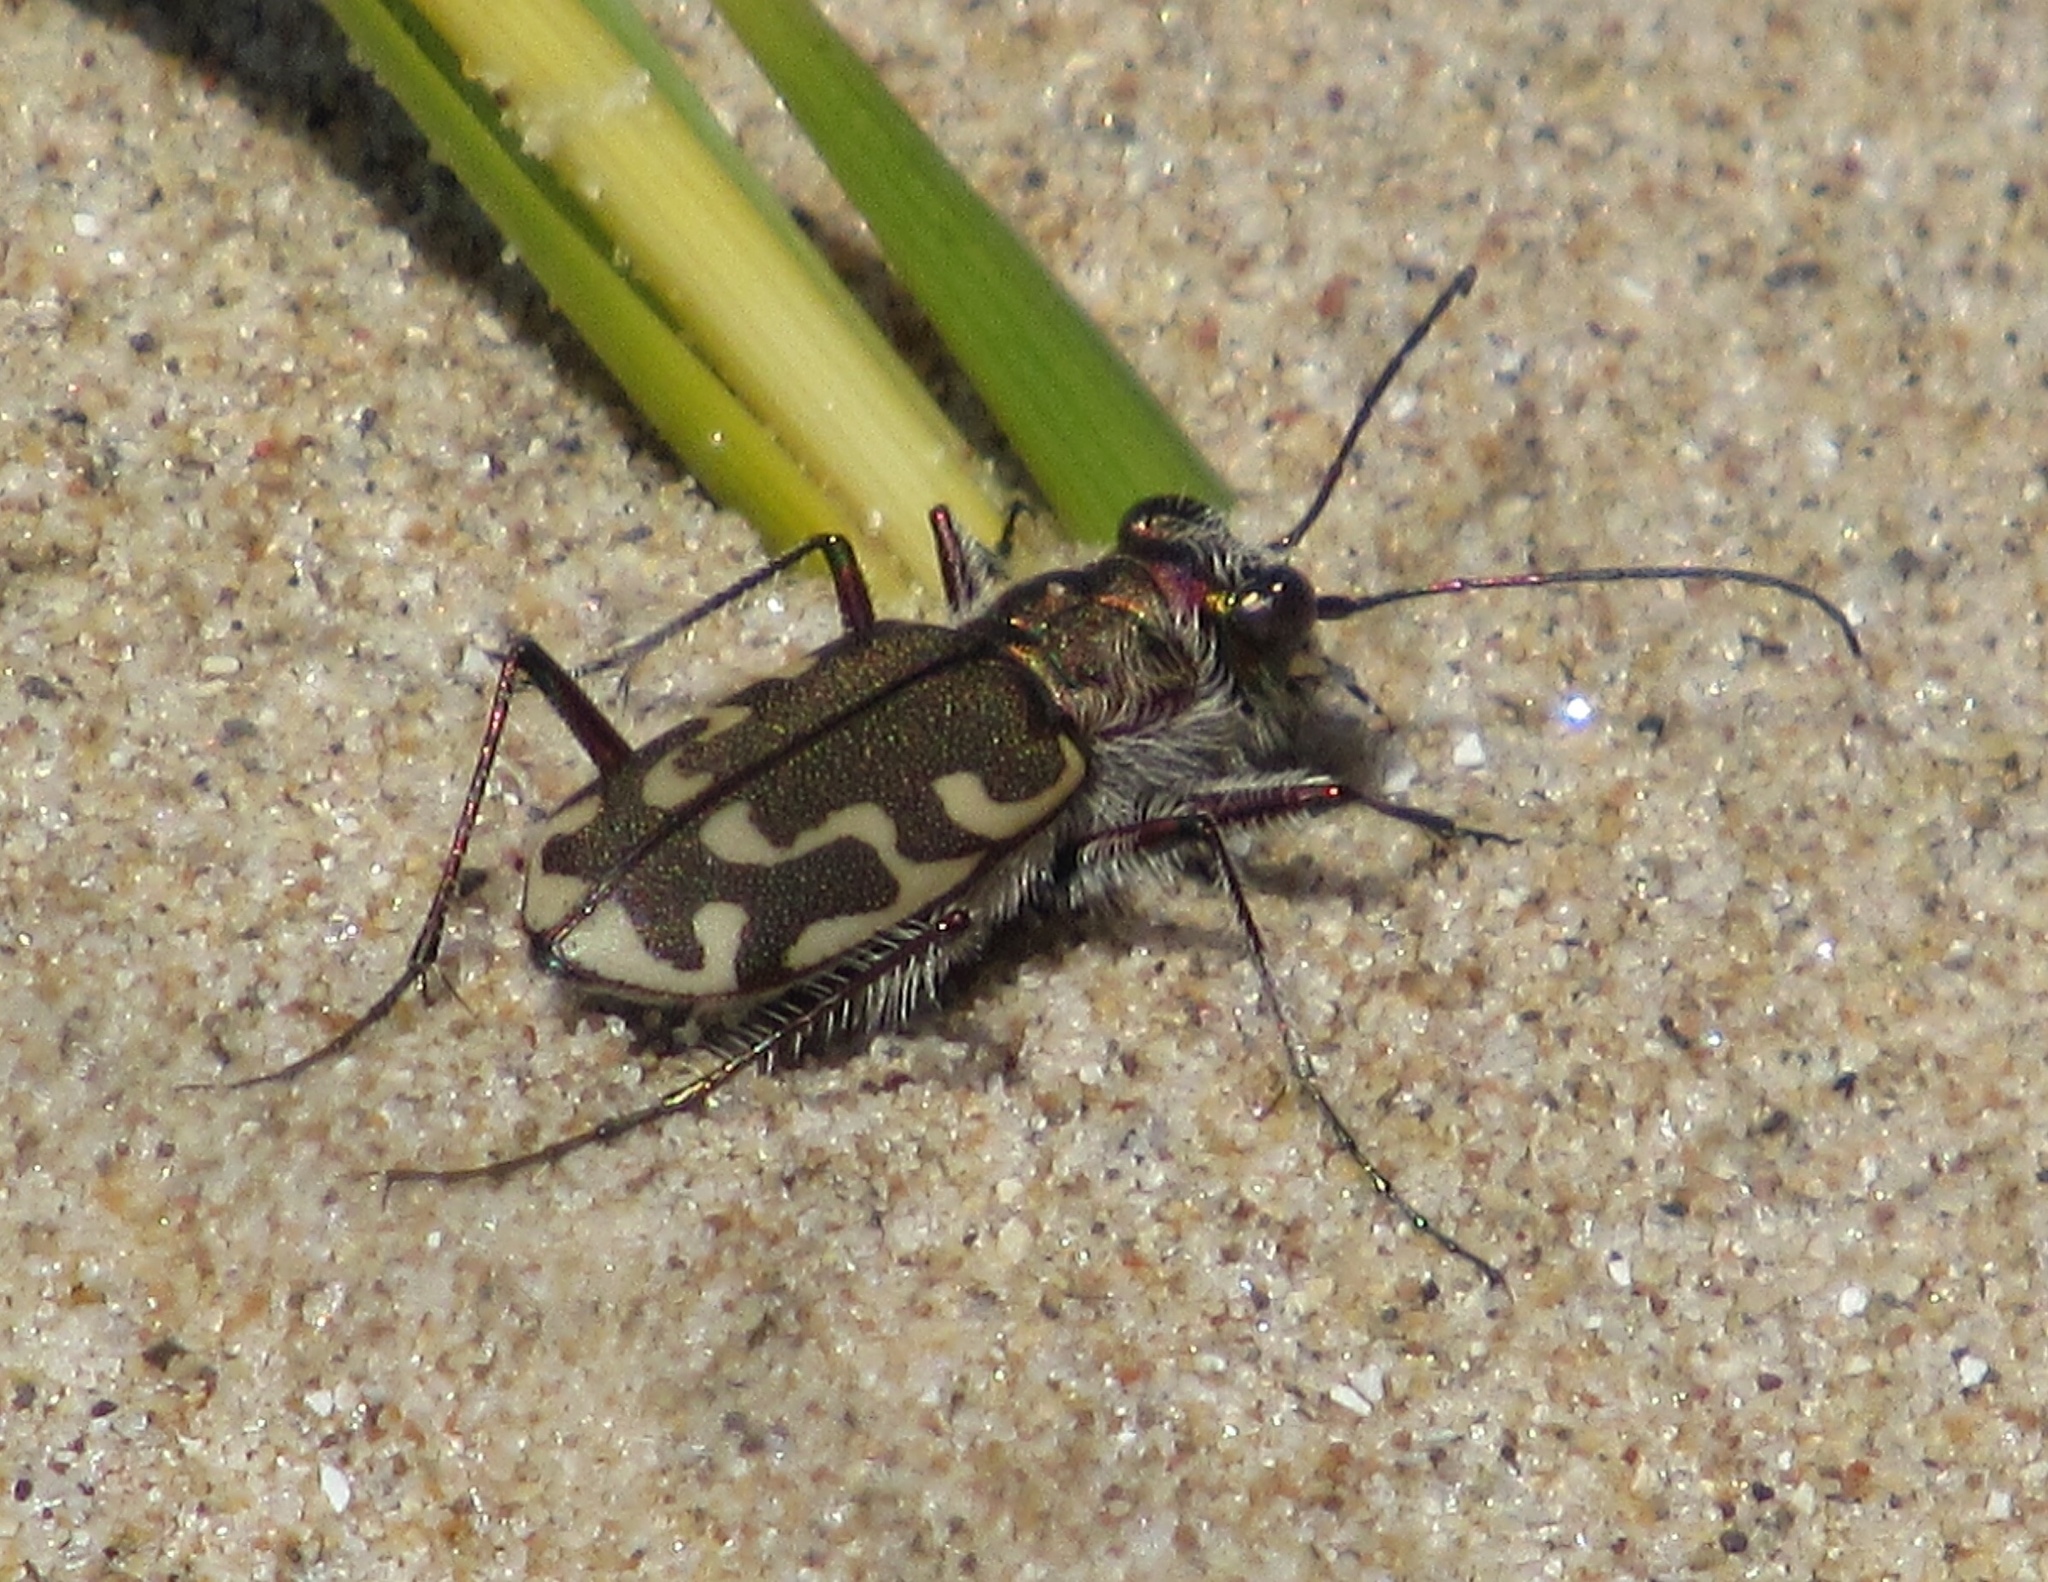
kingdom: Animalia
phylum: Arthropoda
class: Insecta
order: Coleoptera
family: Carabidae
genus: Cicindela
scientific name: Cicindela repanda
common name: Bronzed tiger beetle
